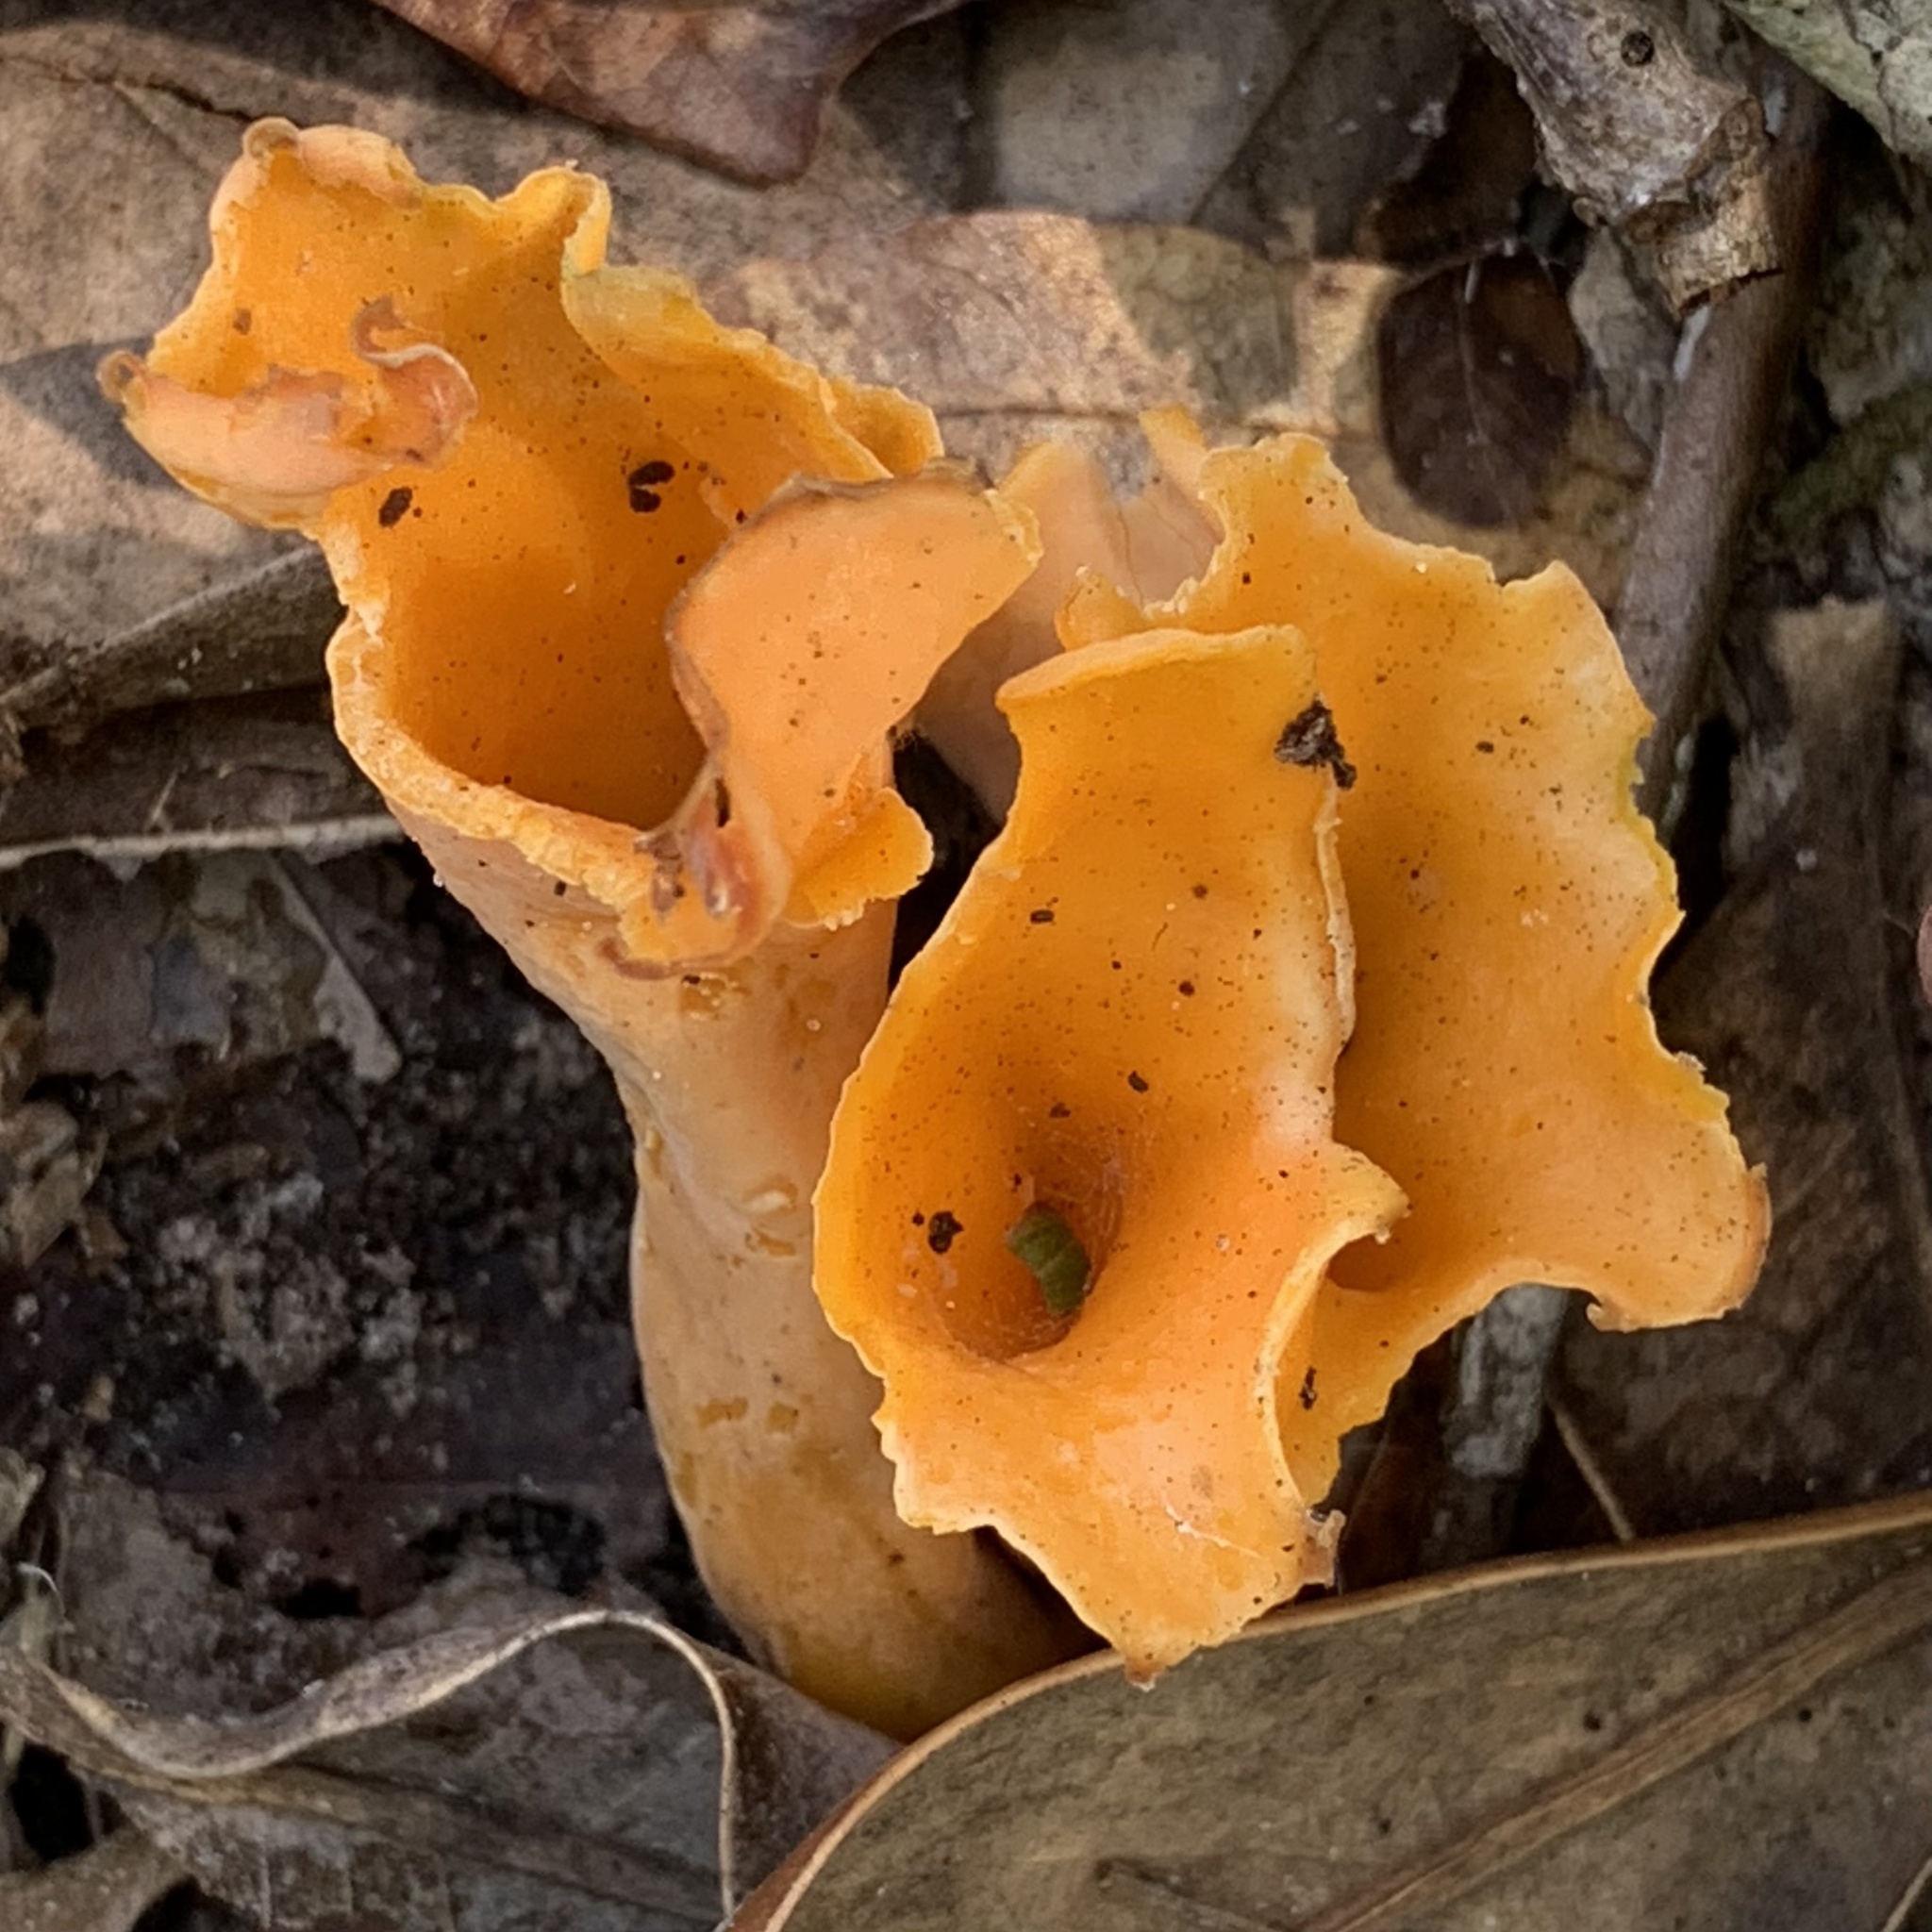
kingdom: Fungi
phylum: Basidiomycota
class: Agaricomycetes
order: Cantharellales
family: Hydnaceae
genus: Cantharellus
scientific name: Cantharellus odoratus
